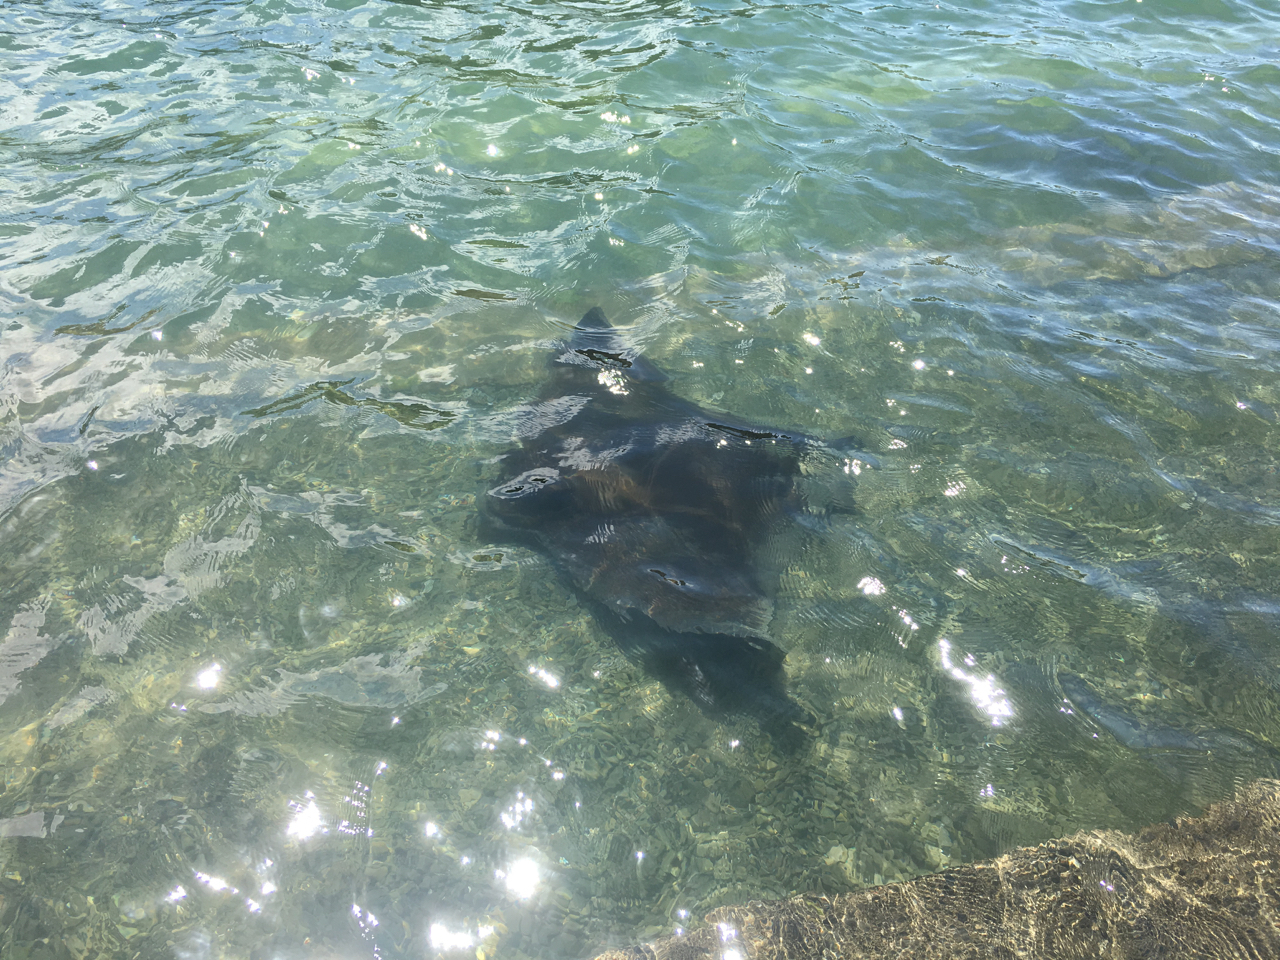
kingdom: Animalia
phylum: Chordata
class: Elasmobranchii
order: Myliobatiformes
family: Myliobatidae
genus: Myliobatis
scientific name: Myliobatis tenuicaudatus
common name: Eagle ray
